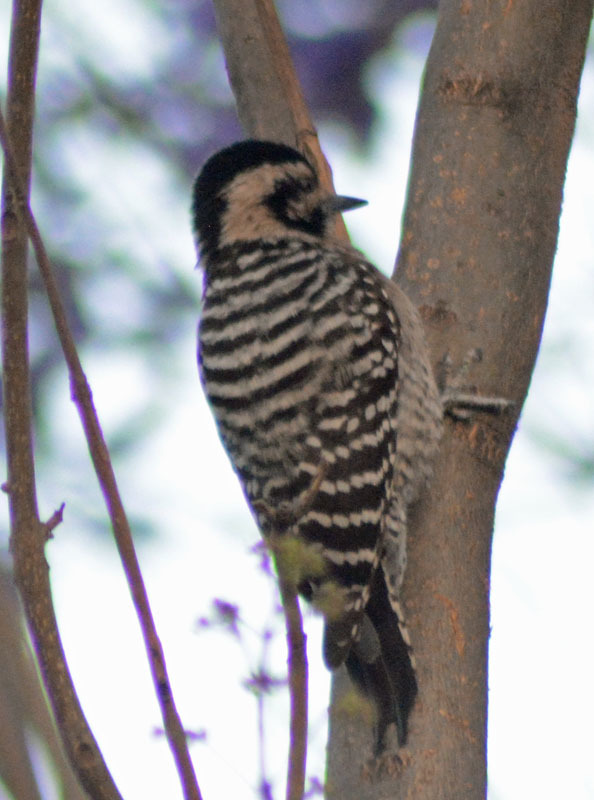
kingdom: Animalia
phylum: Chordata
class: Aves
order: Piciformes
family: Picidae
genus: Dryobates
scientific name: Dryobates scalaris
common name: Ladder-backed woodpecker
